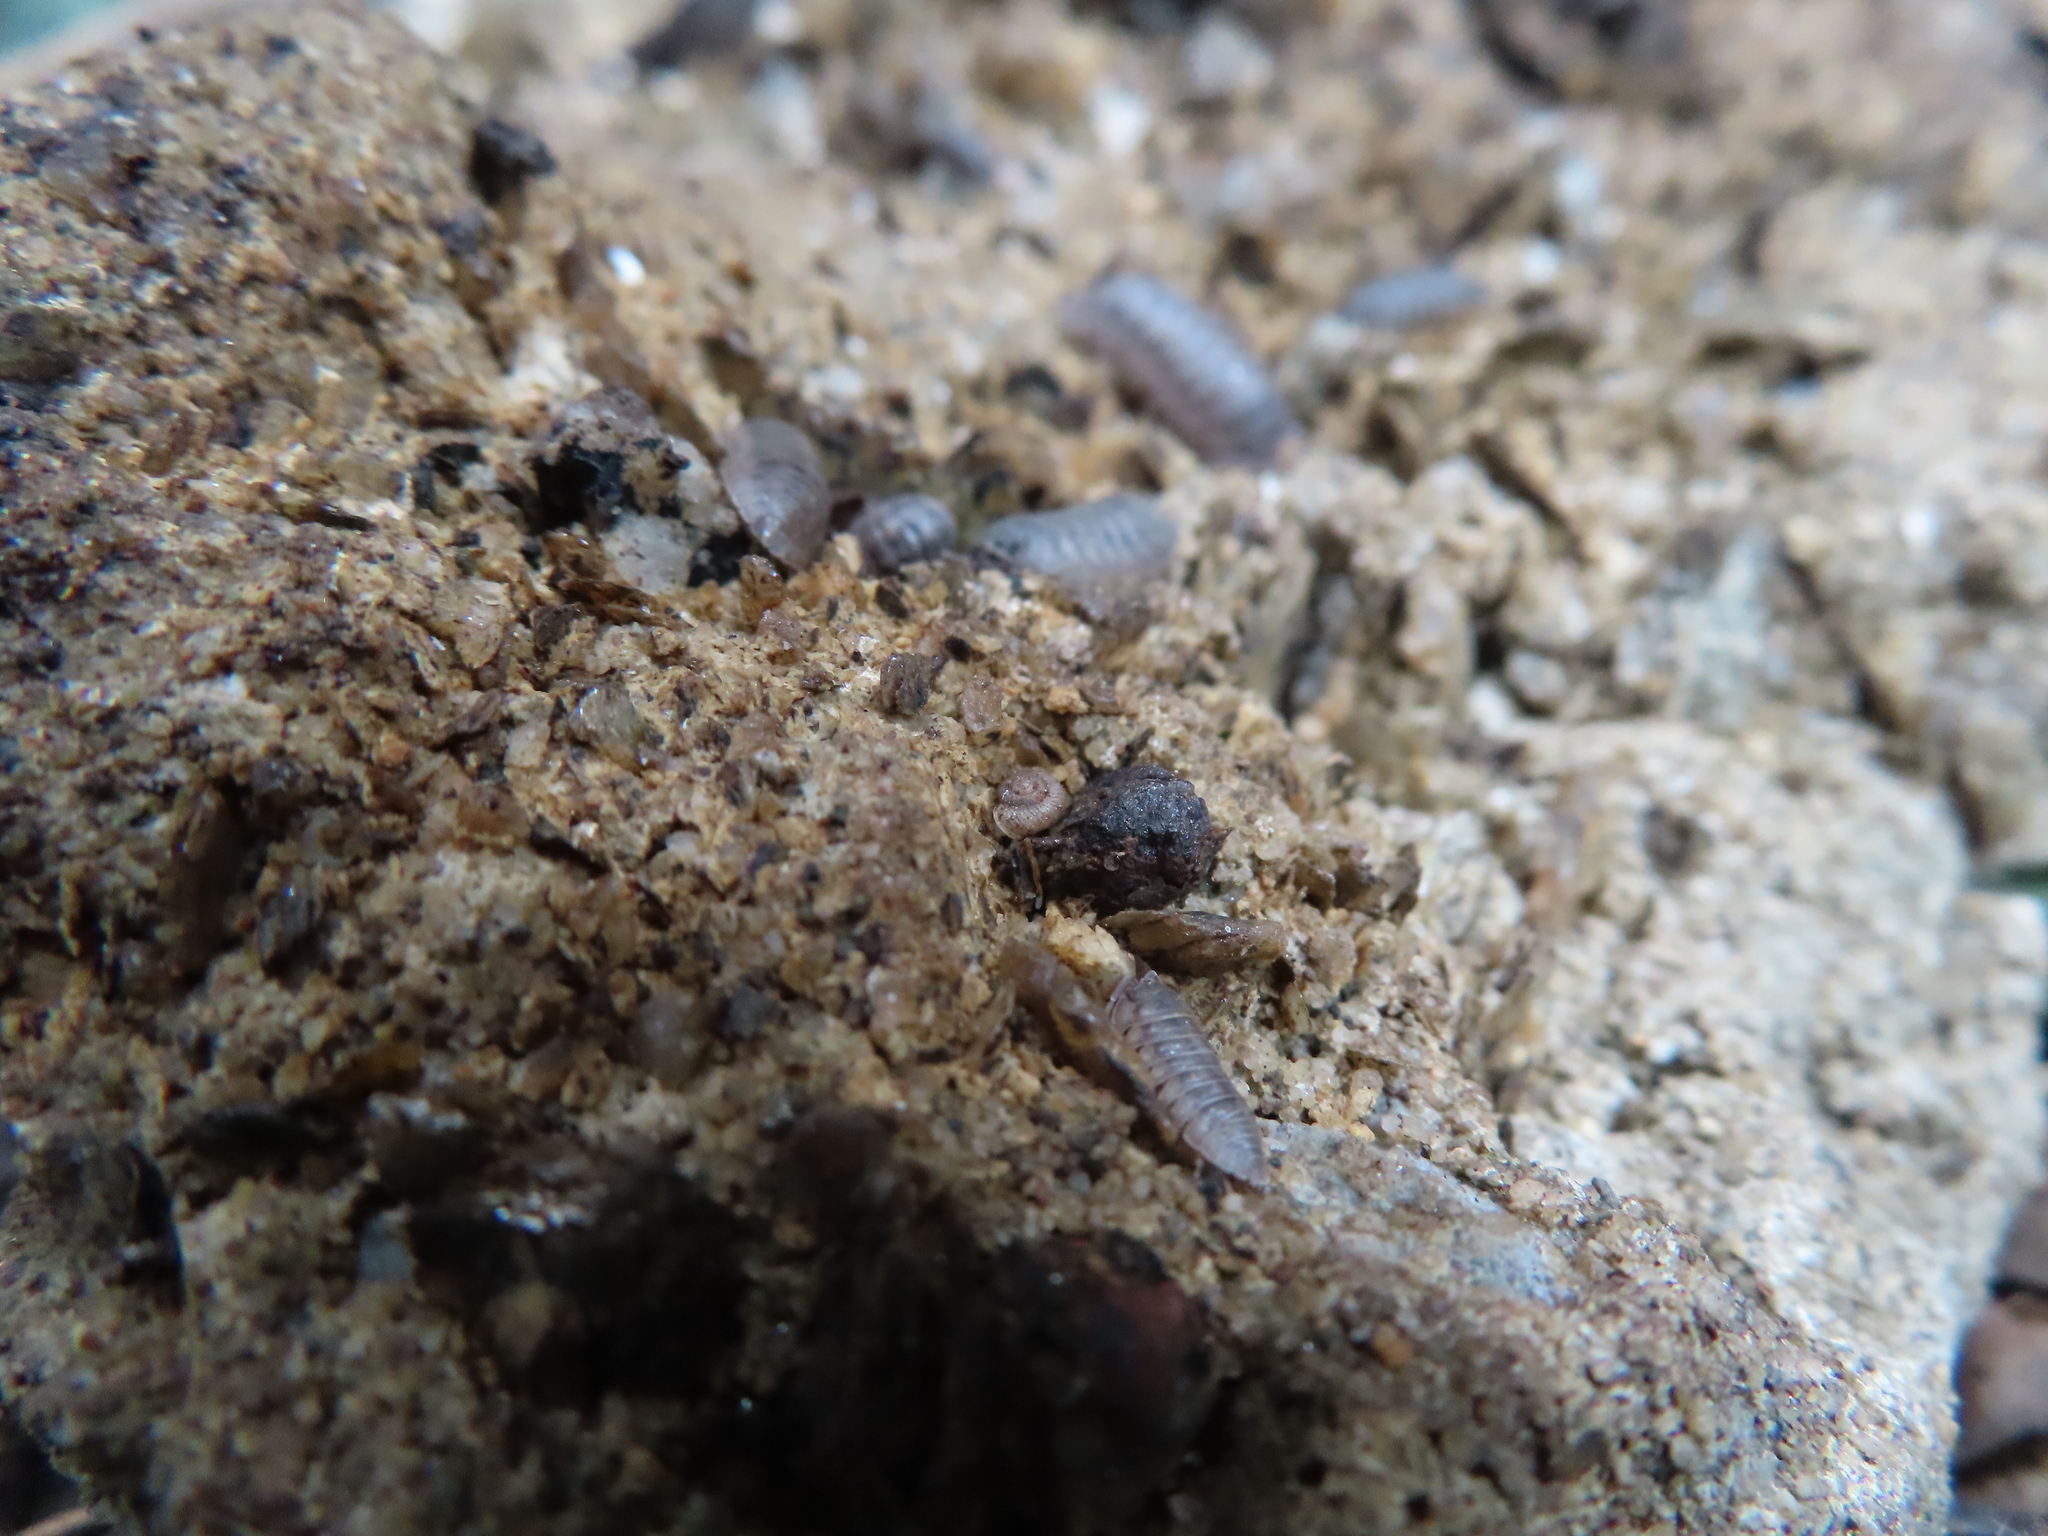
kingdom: Animalia
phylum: Arthropoda
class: Malacostraca
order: Isopoda
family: Armadillidiidae
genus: Armadillidium
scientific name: Armadillidium nasatum
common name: Isopod
